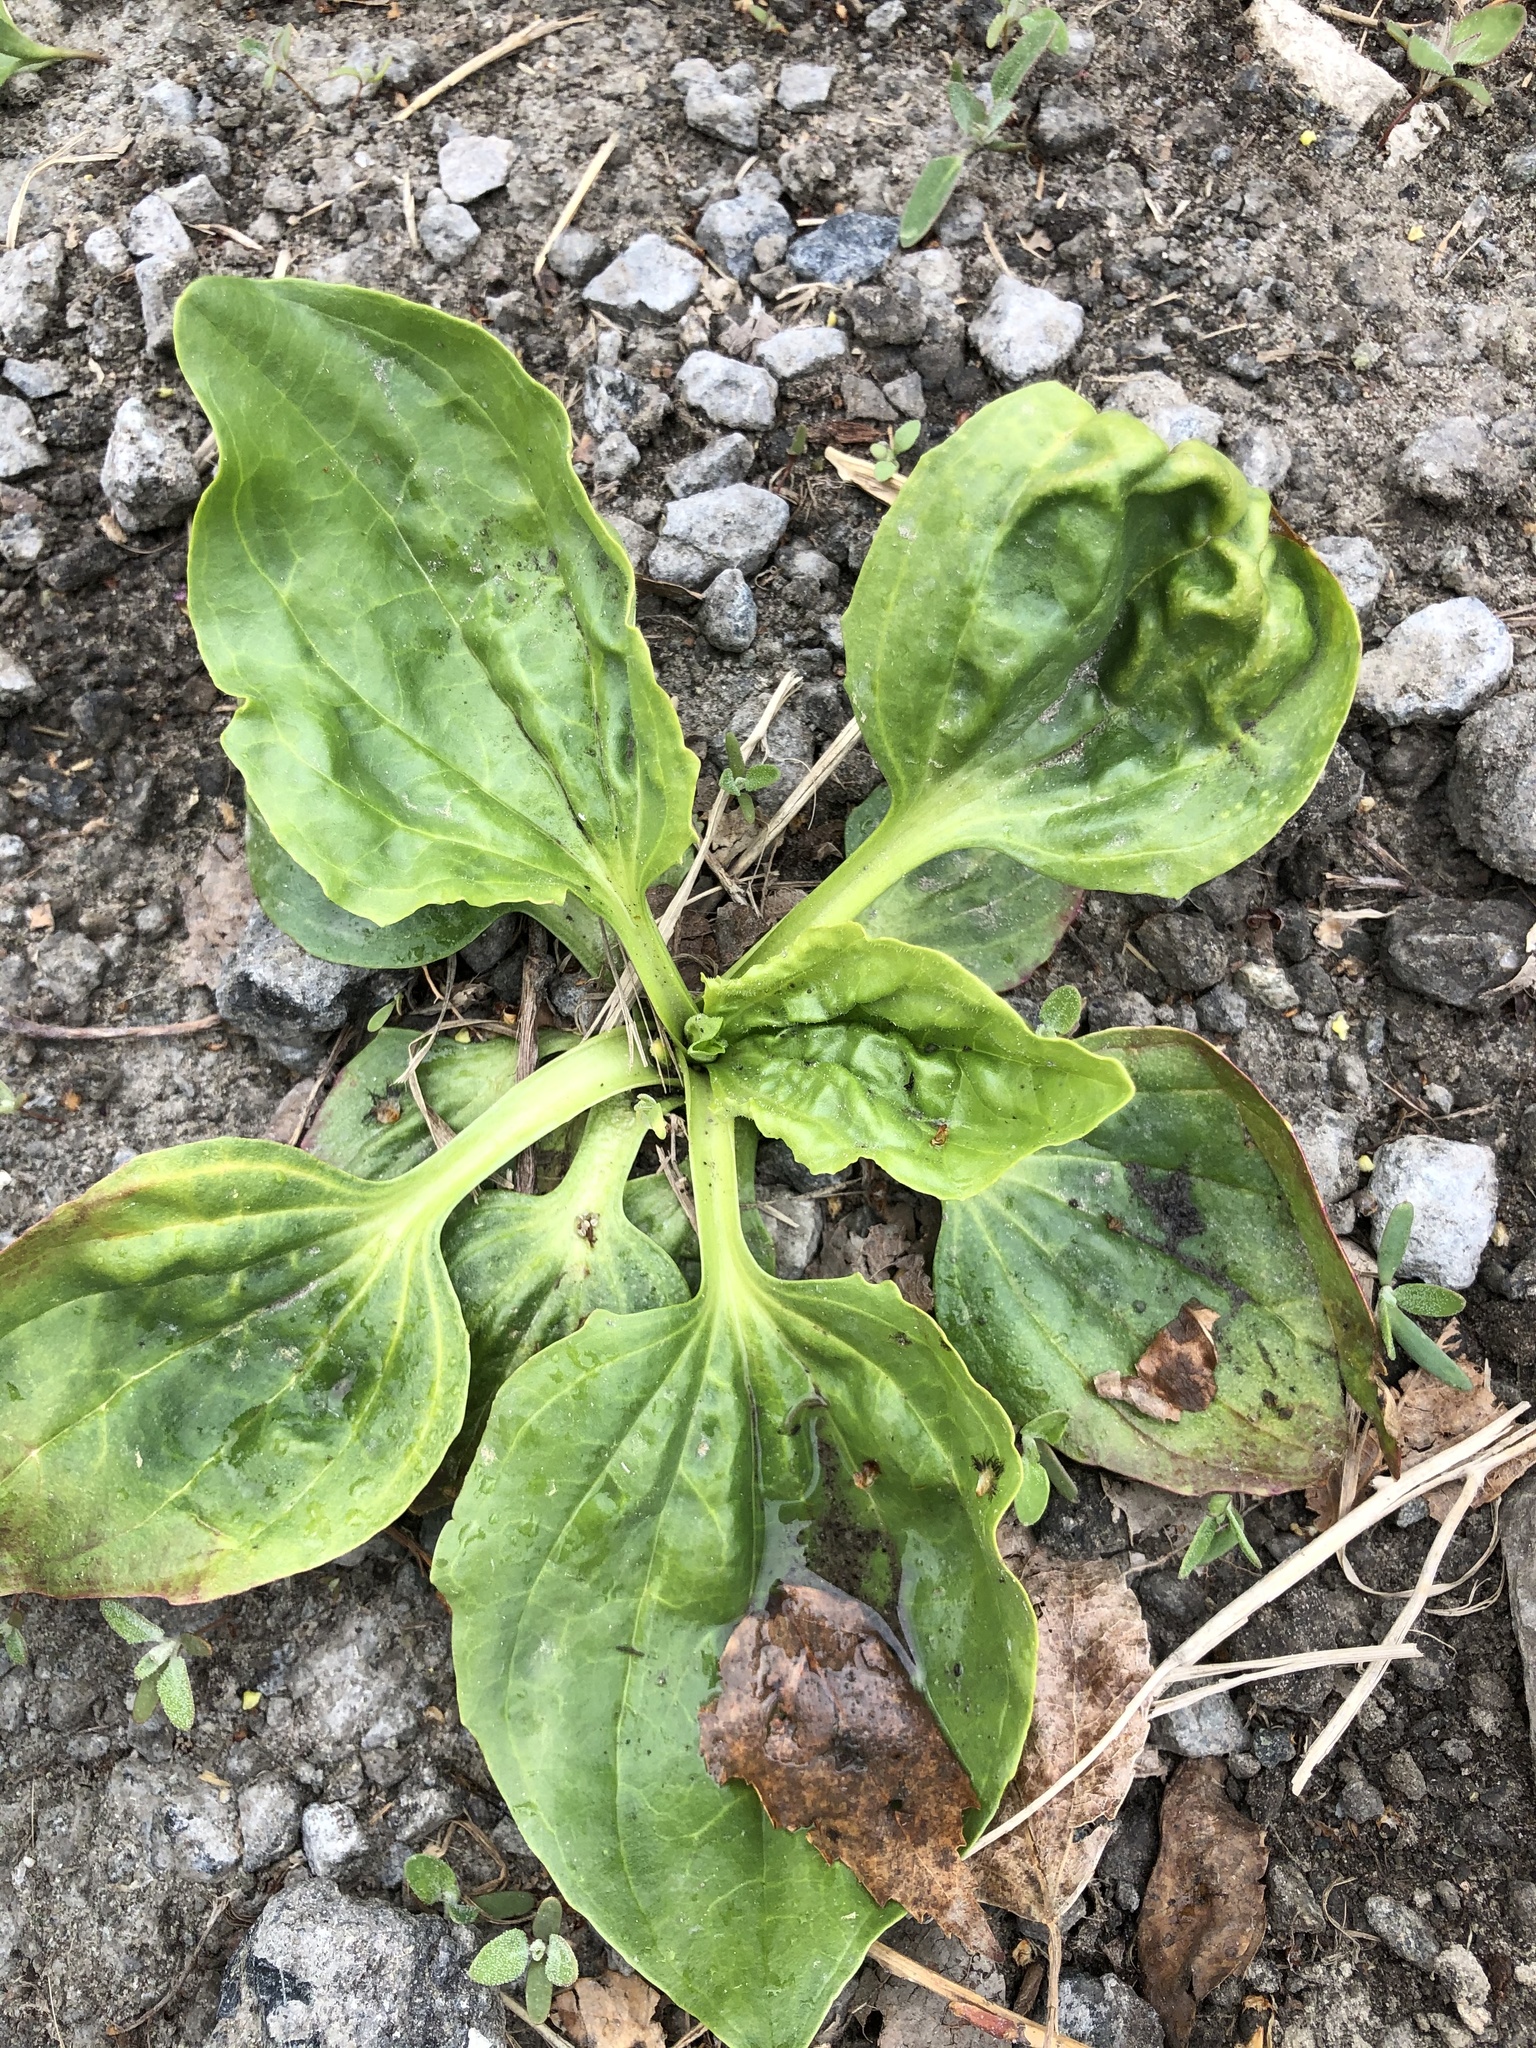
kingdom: Plantae
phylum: Tracheophyta
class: Magnoliopsida
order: Lamiales
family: Plantaginaceae
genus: Plantago
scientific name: Plantago major
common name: Common plantain
